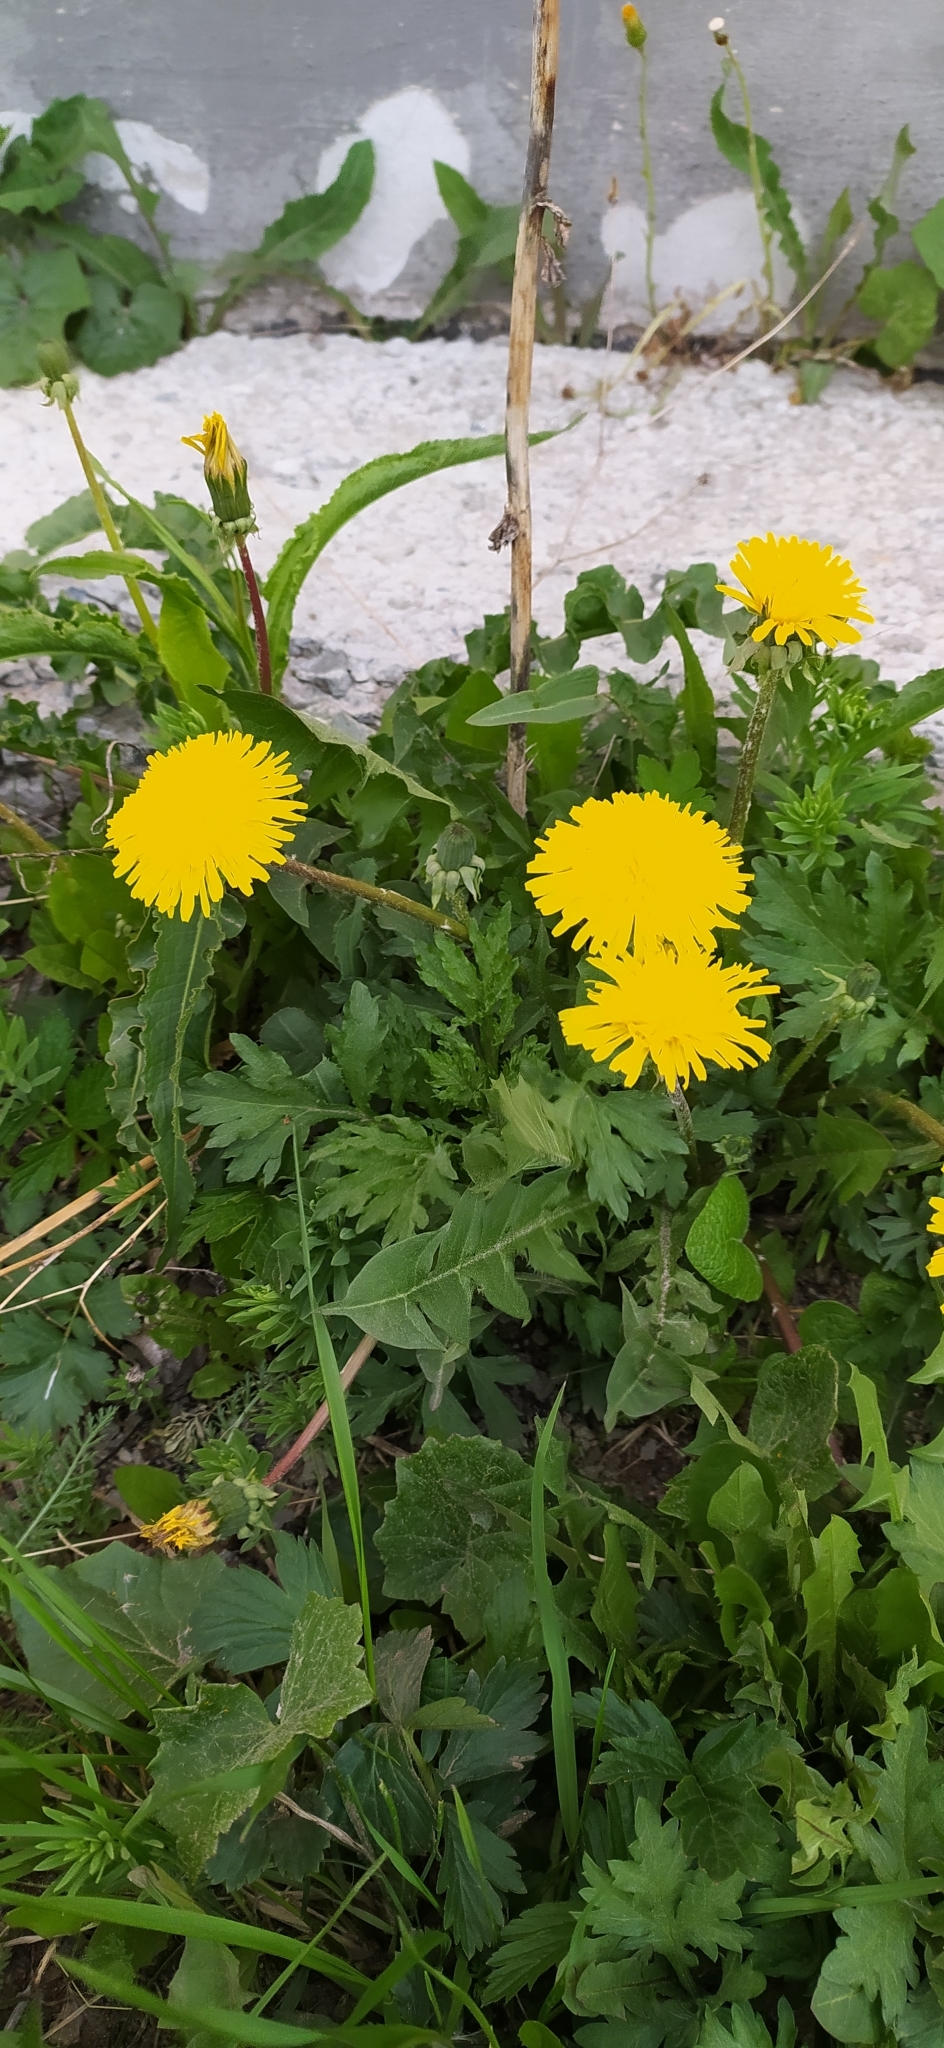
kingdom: Plantae
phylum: Tracheophyta
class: Magnoliopsida
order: Asterales
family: Asteraceae
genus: Taraxacum
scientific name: Taraxacum officinale
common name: Common dandelion
